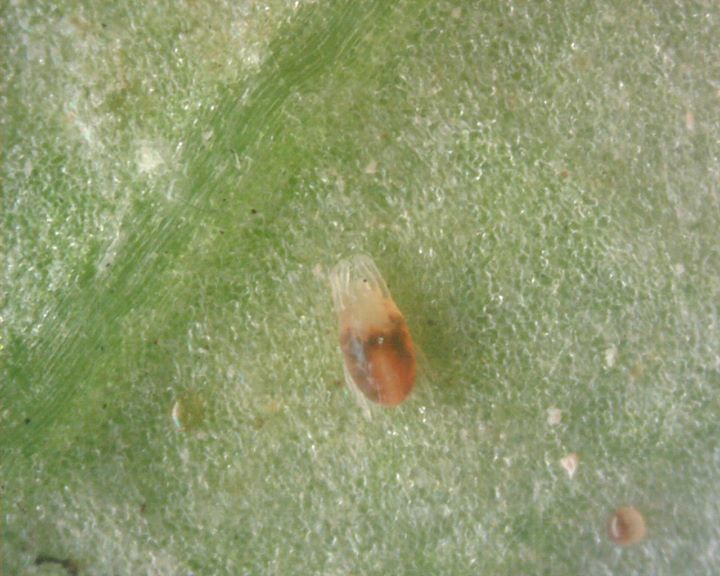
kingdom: Animalia
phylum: Arthropoda
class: Arachnida
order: Trombidiformes
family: Tetranychidae
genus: Tetranychus
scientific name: Tetranychus urticae
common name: Carmine spider mite
